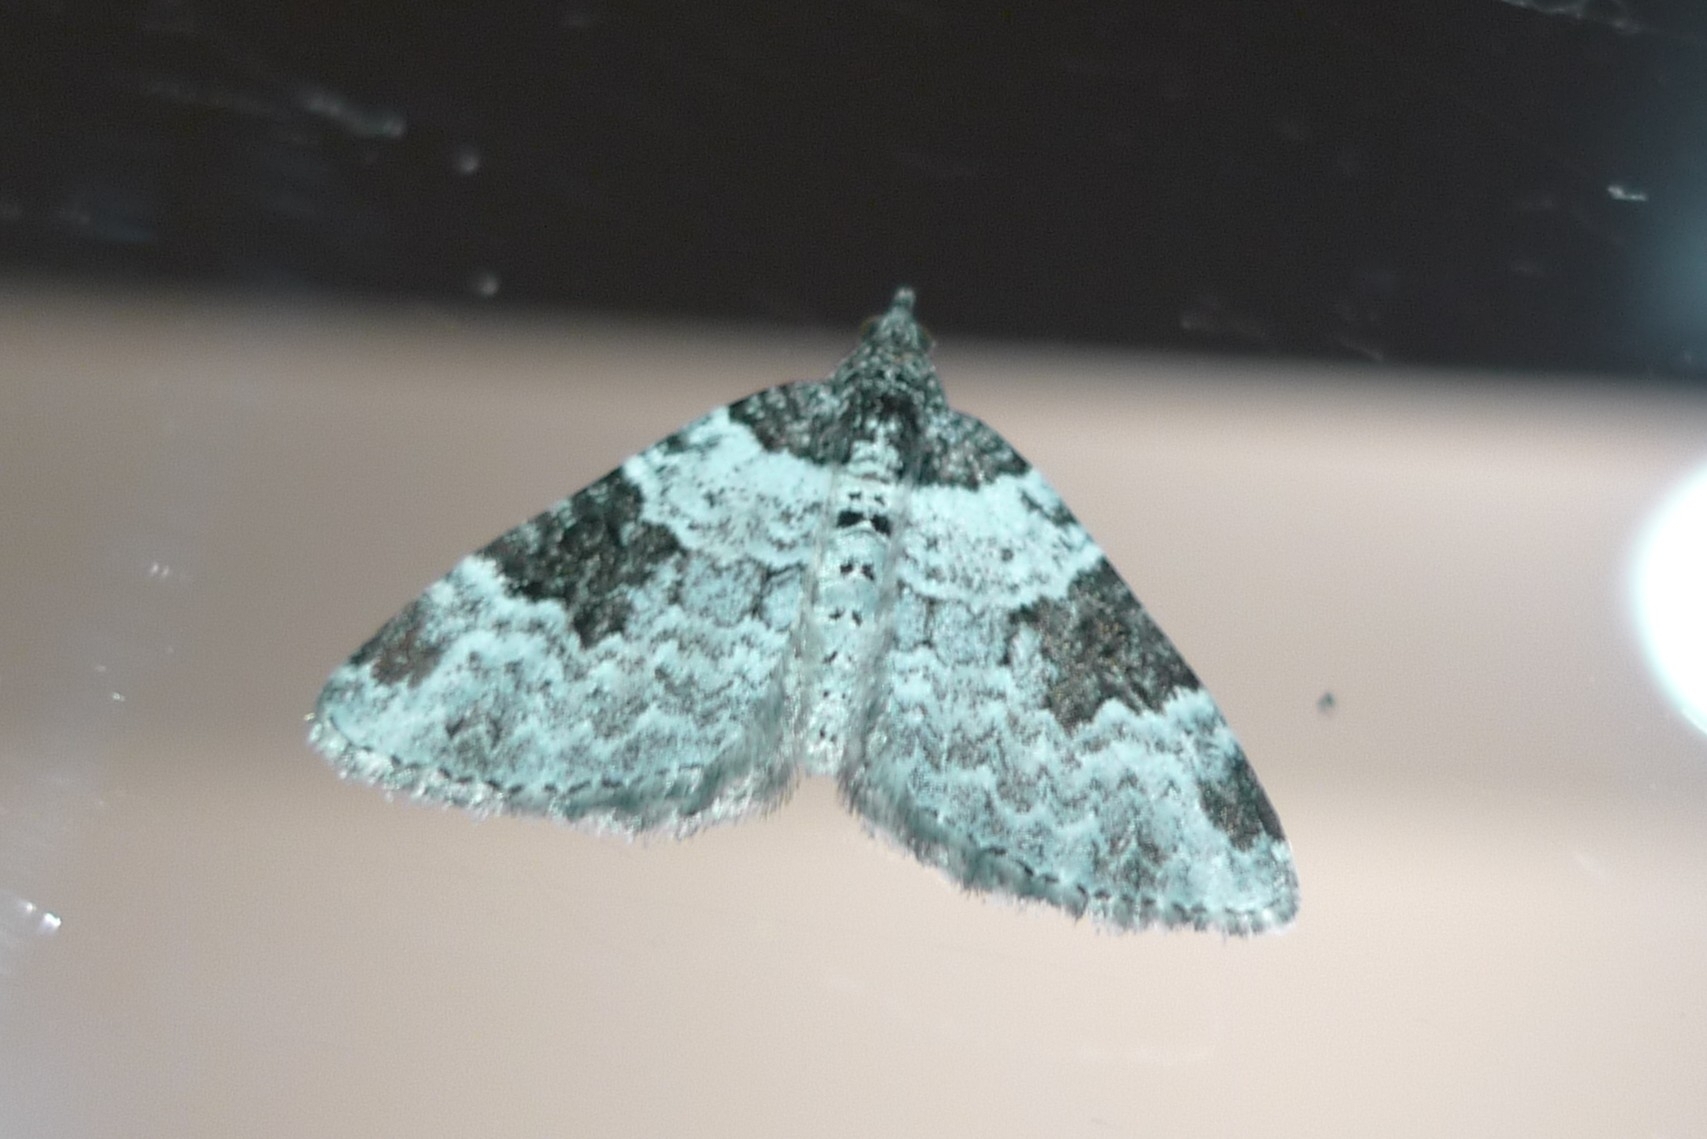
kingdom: Animalia
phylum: Arthropoda
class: Insecta
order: Lepidoptera
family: Geometridae
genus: Xanthorhoe
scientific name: Xanthorhoe fluctuata
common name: Garden carpet
